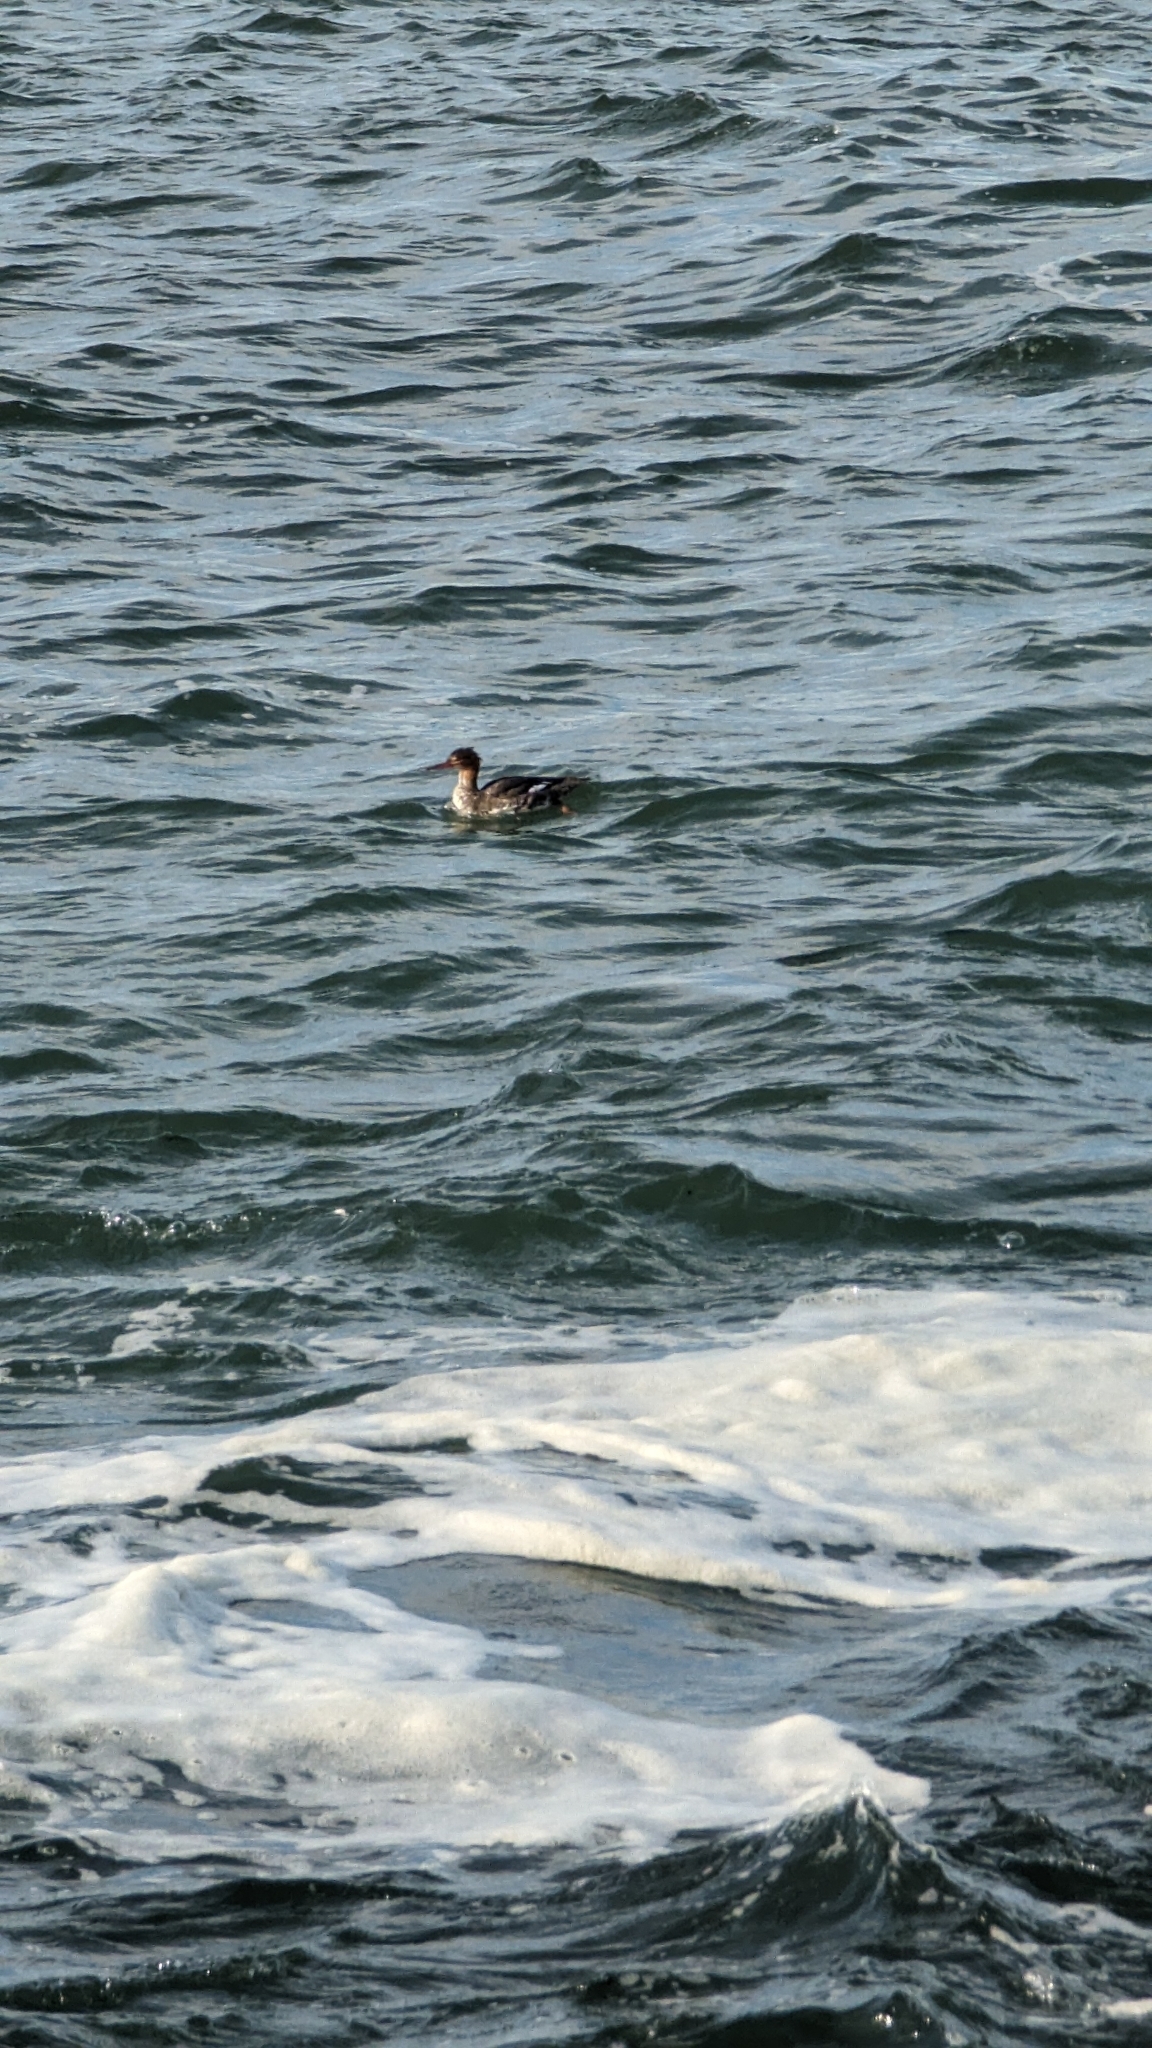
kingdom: Animalia
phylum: Chordata
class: Aves
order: Anseriformes
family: Anatidae
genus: Mergus
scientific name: Mergus serrator
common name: Red-breasted merganser
